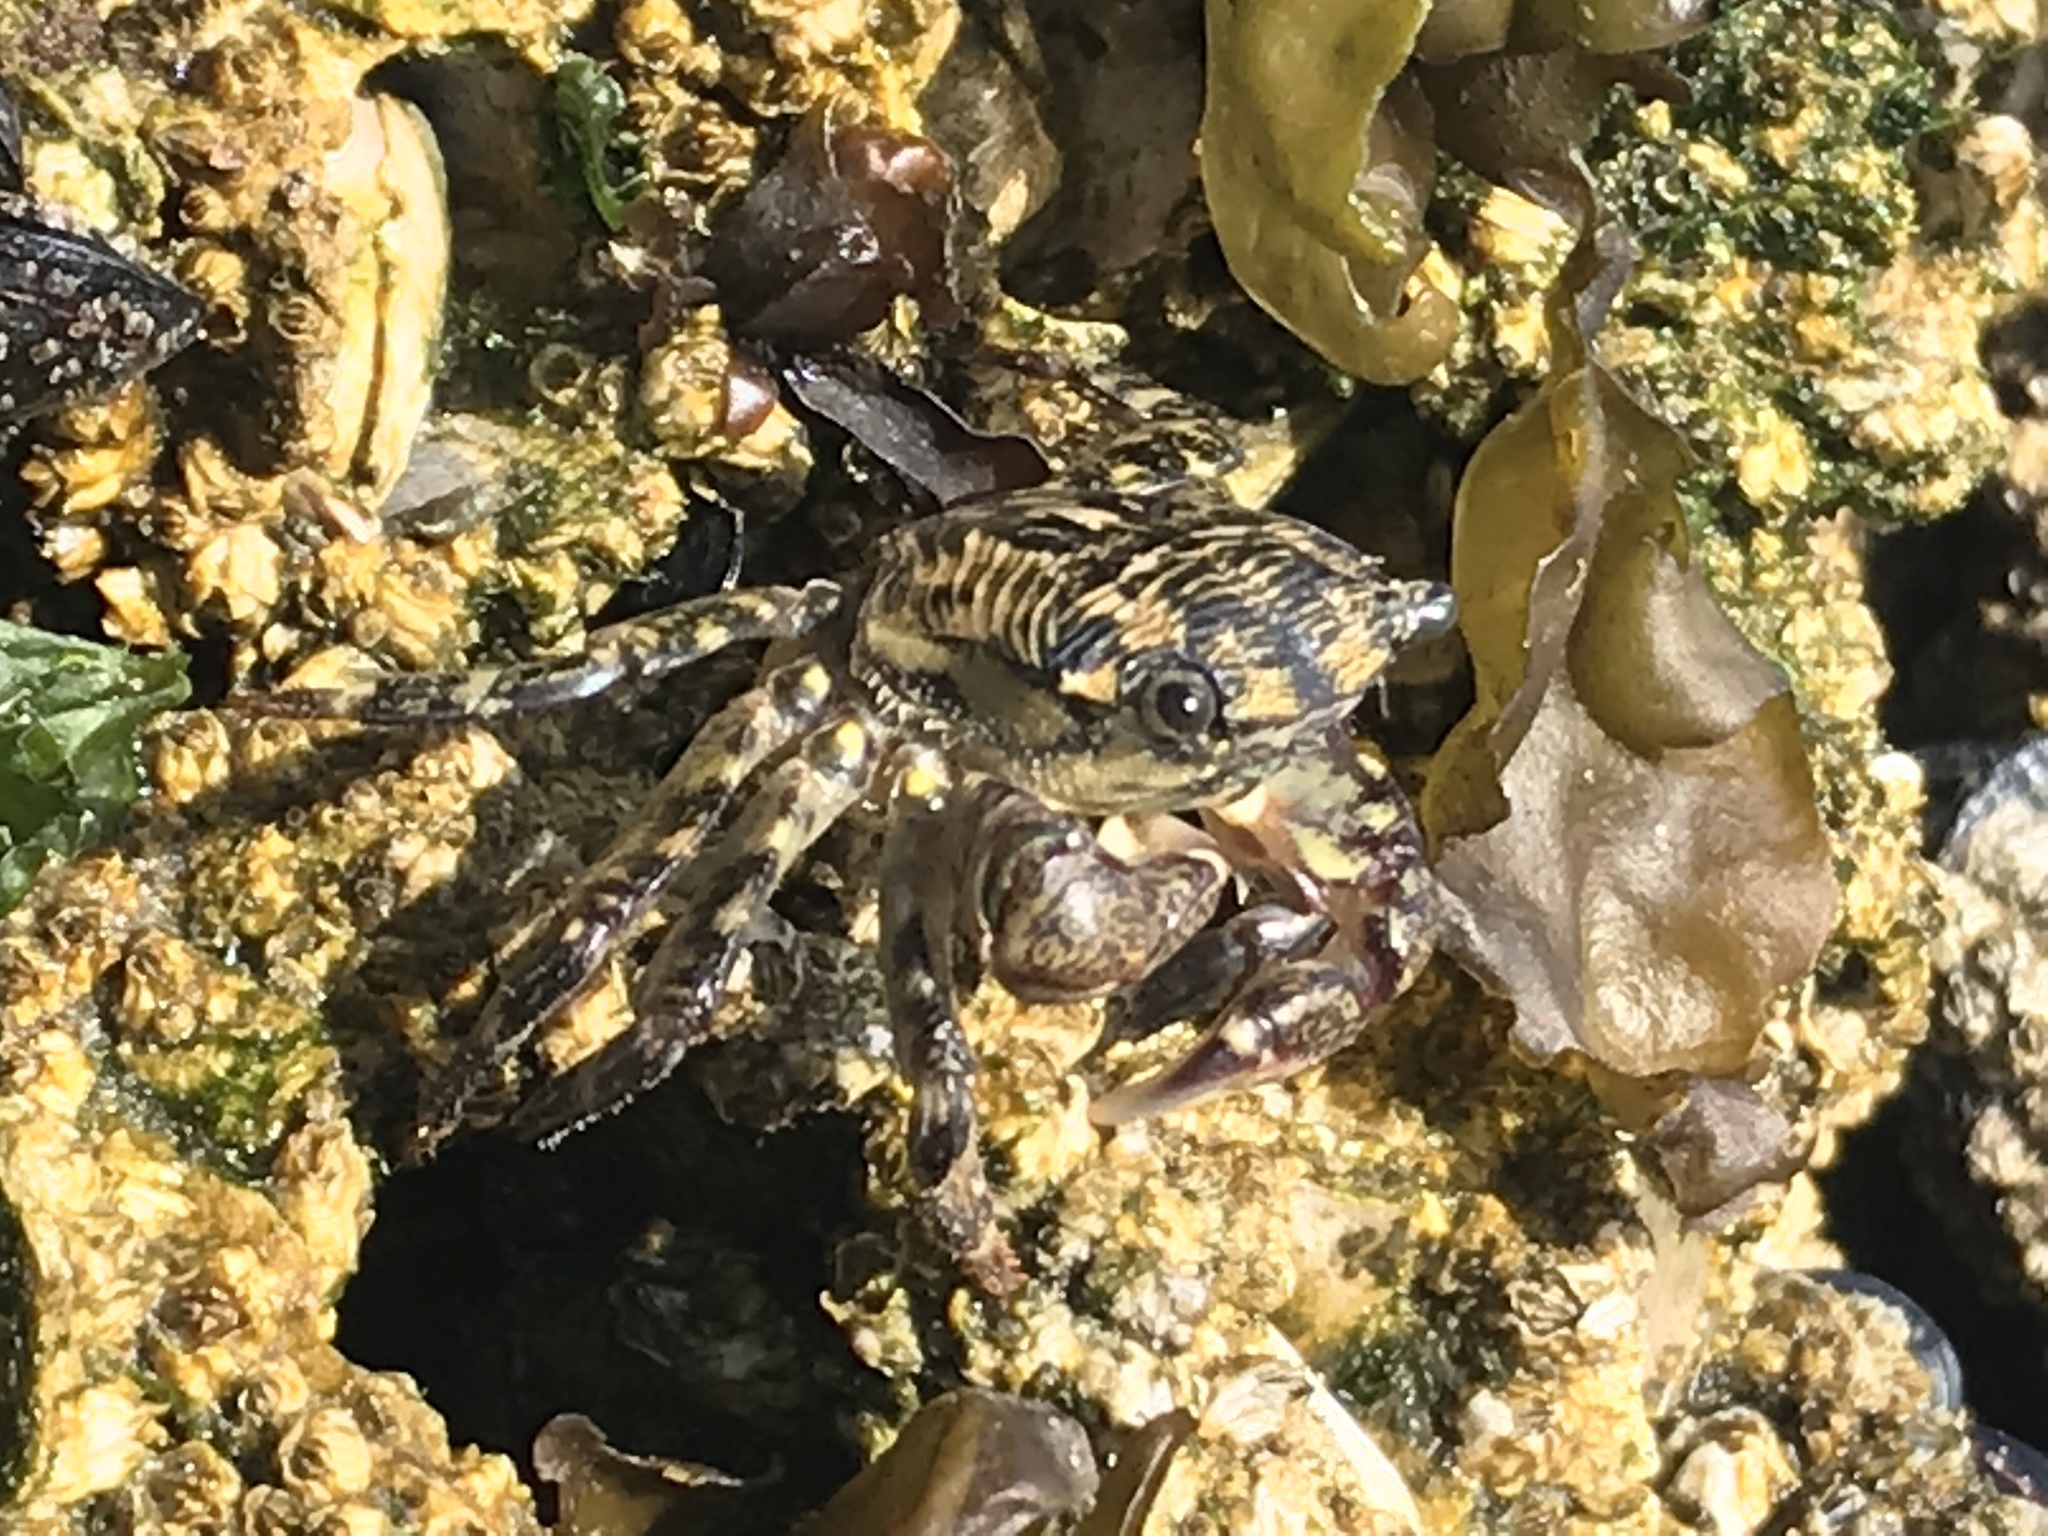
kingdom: Animalia
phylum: Arthropoda
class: Malacostraca
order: Decapoda
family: Grapsidae
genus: Pachygrapsus
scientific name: Pachygrapsus crassipes
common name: Striped shore crab
